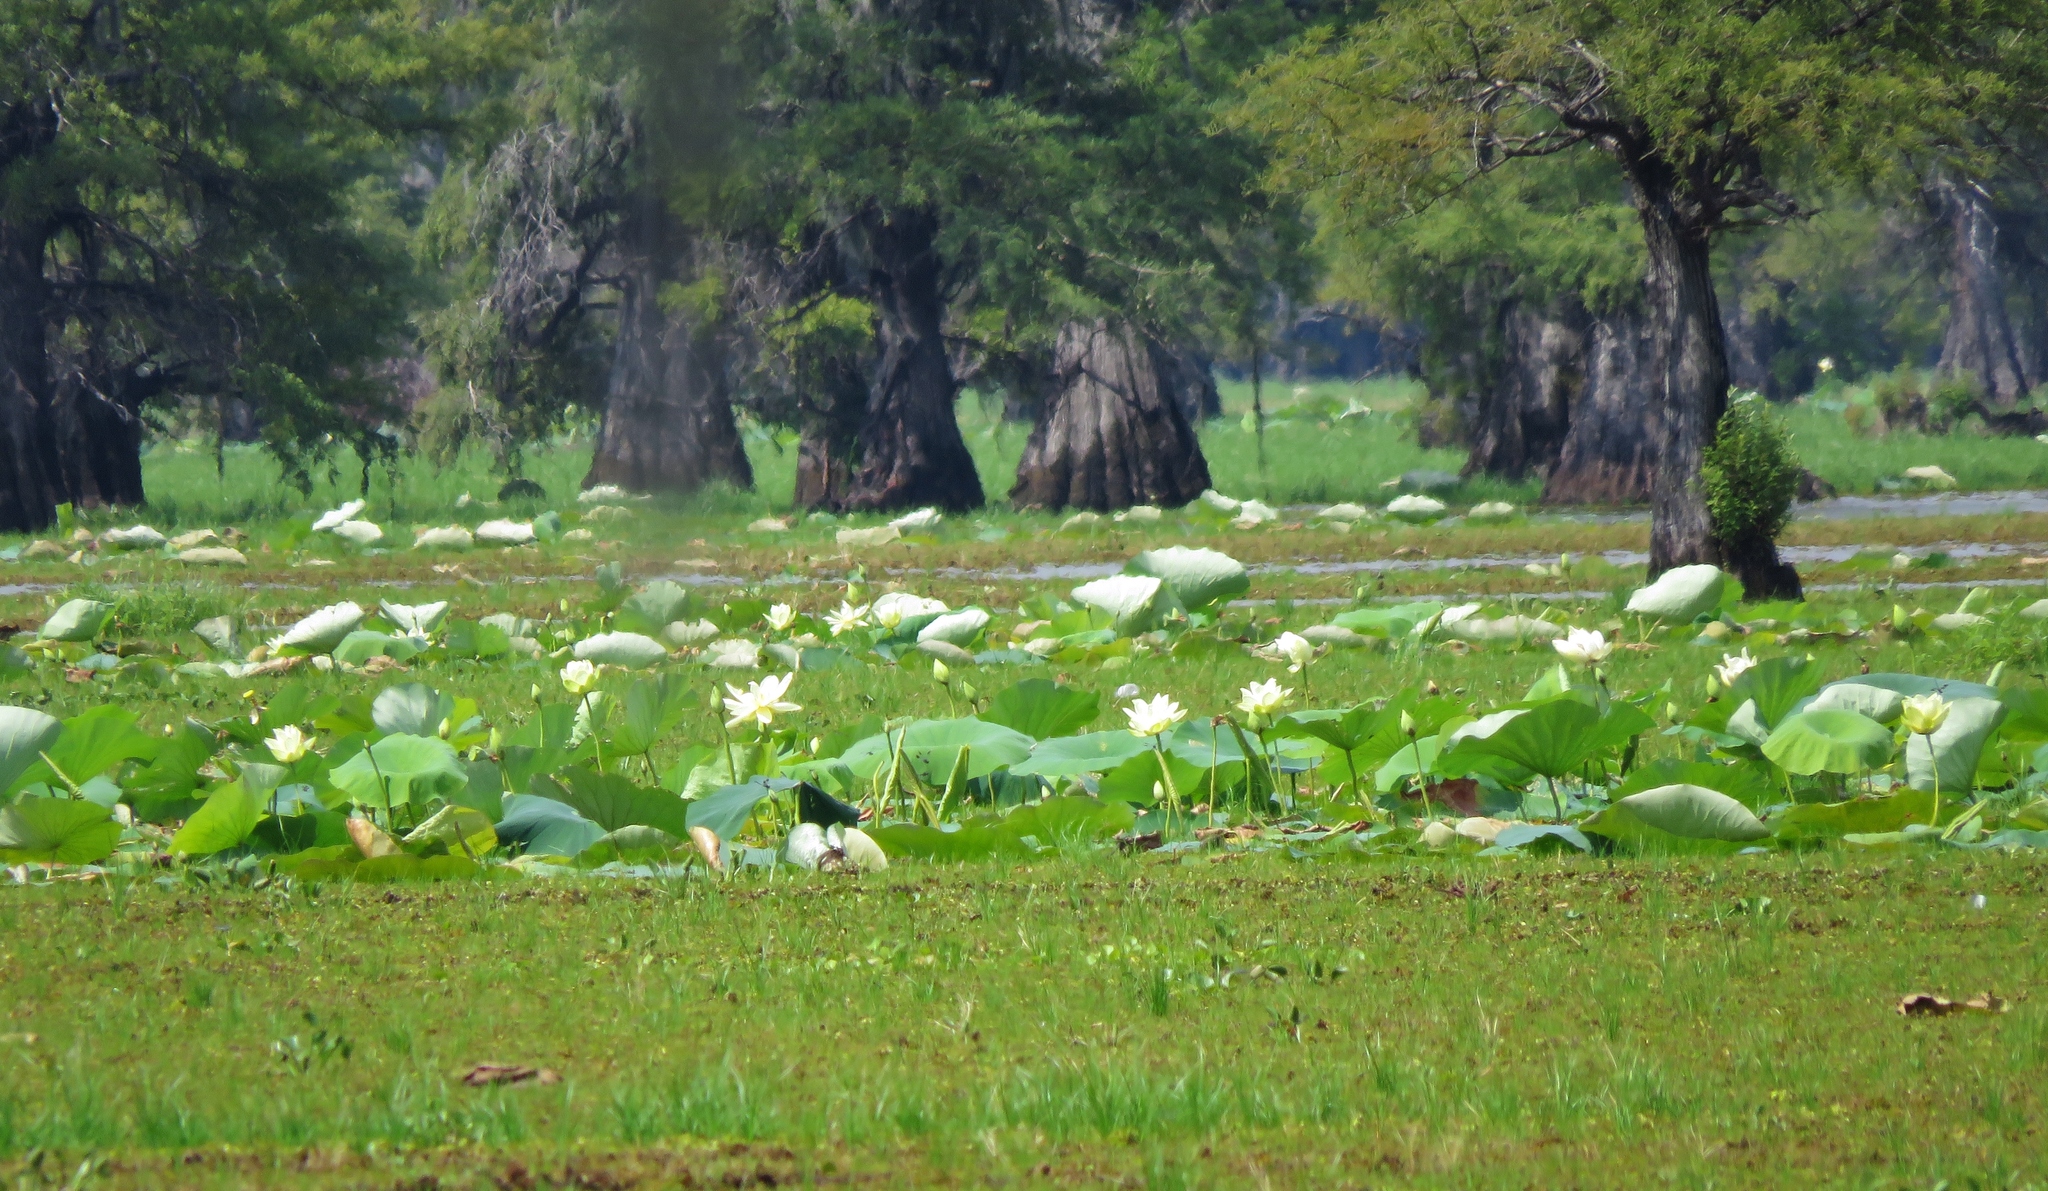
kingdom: Plantae
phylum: Tracheophyta
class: Magnoliopsida
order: Proteales
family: Nelumbonaceae
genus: Nelumbo
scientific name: Nelumbo lutea
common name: American lotus
